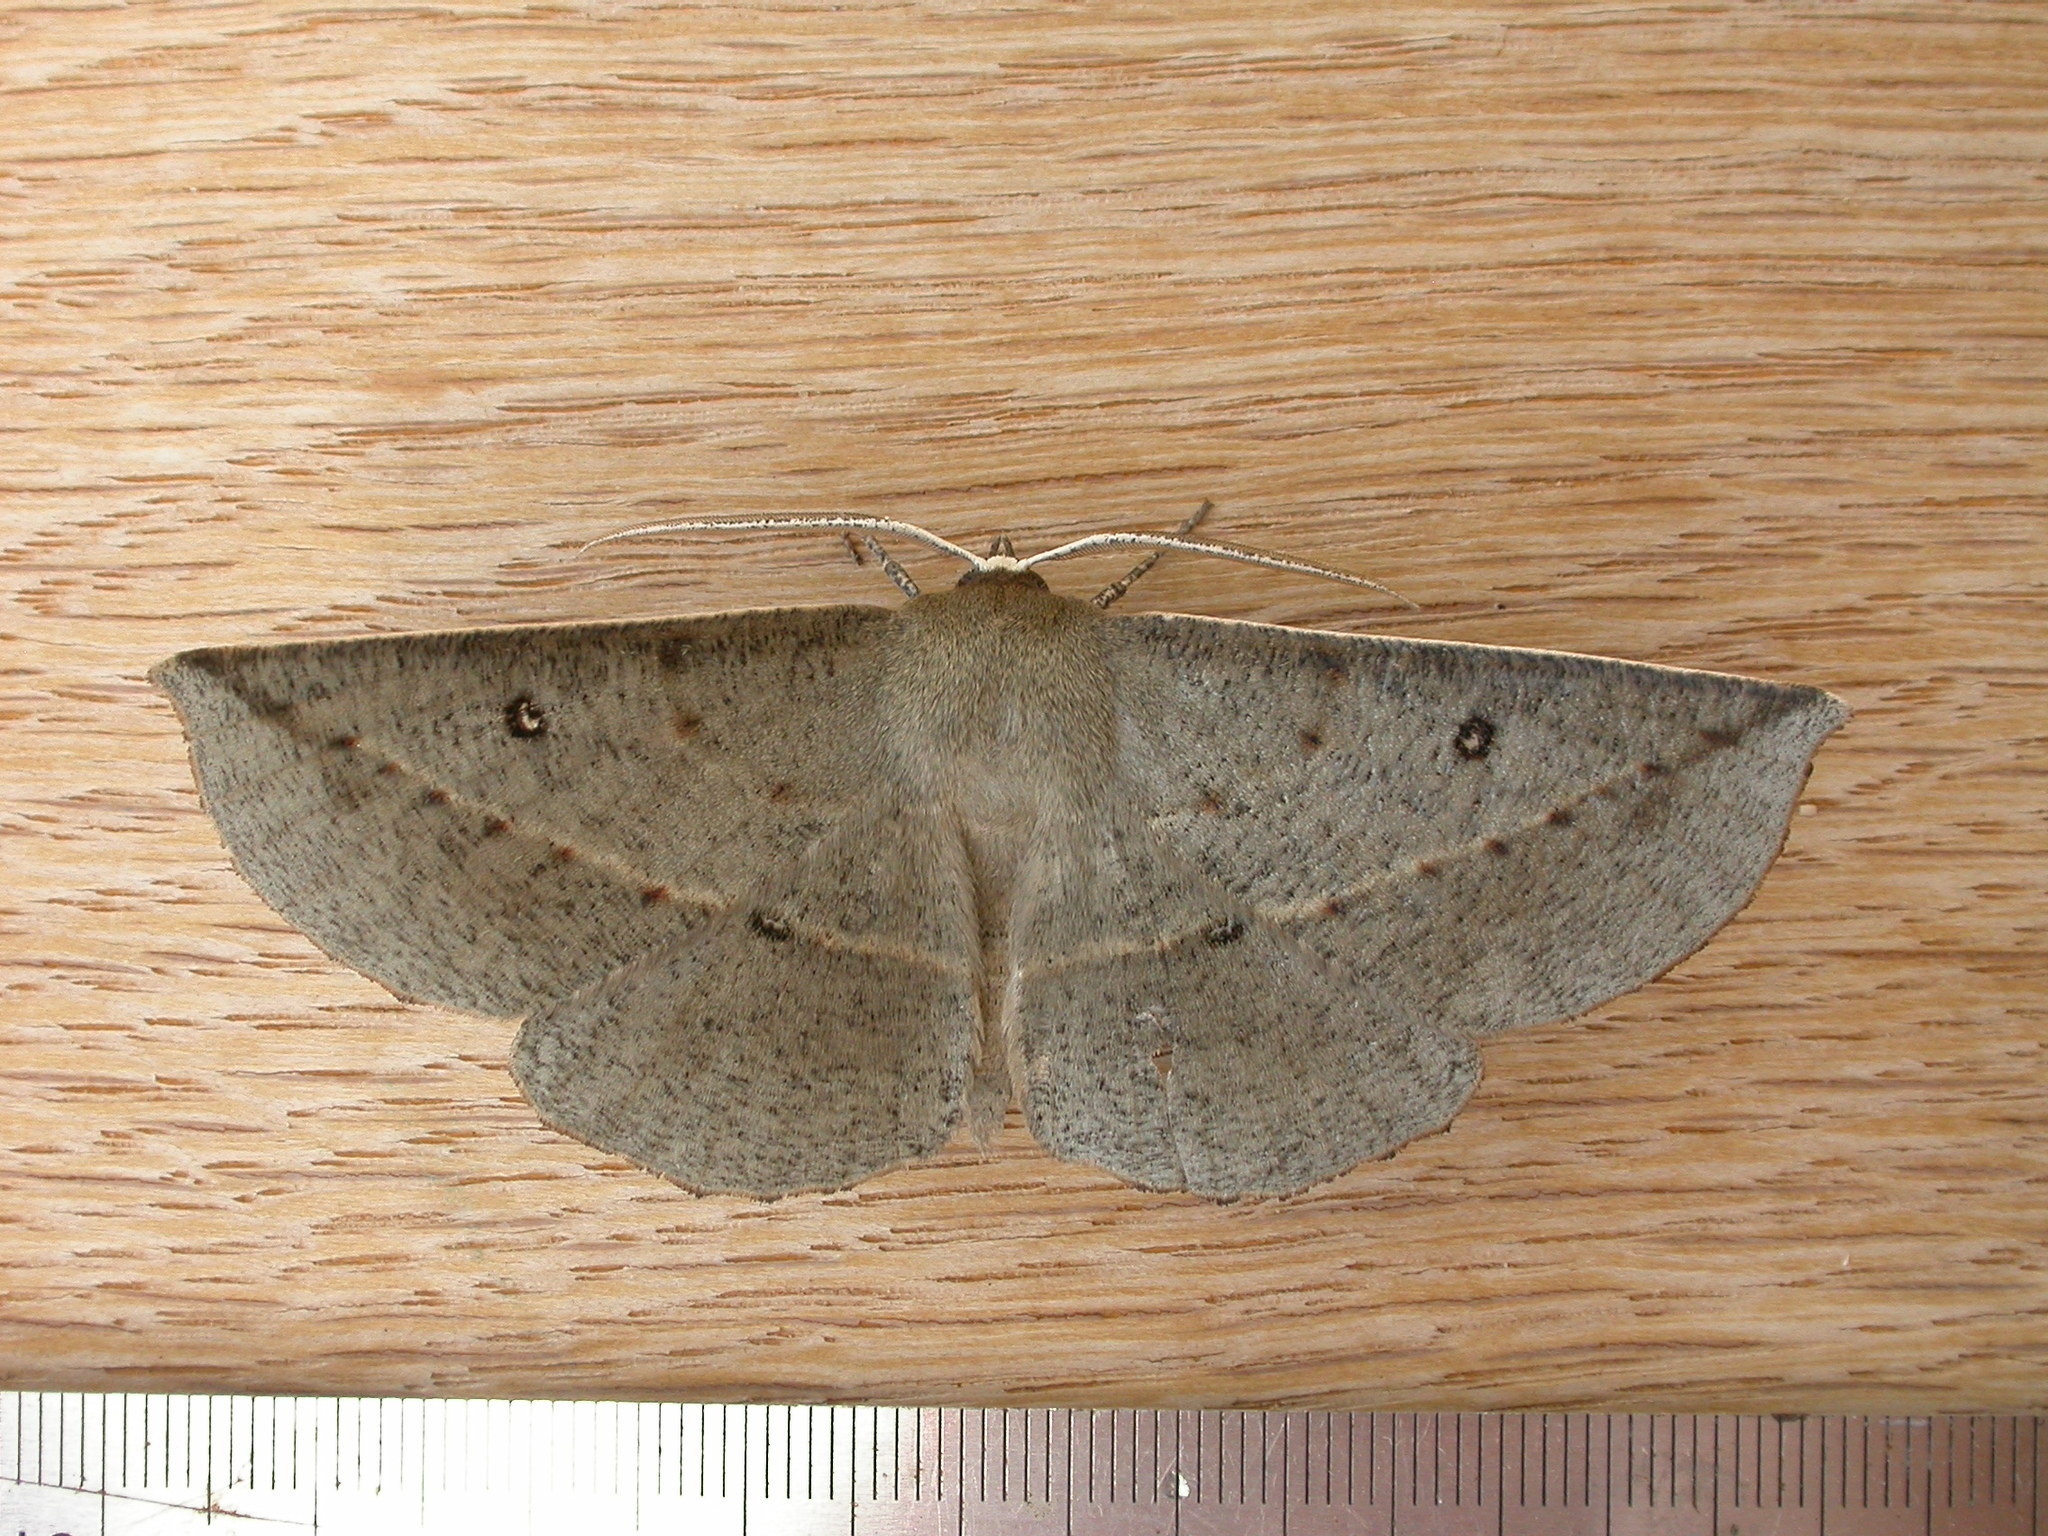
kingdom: Animalia
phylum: Arthropoda
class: Insecta
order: Lepidoptera
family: Geometridae
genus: Phallaria
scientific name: Phallaria ophiusaria
